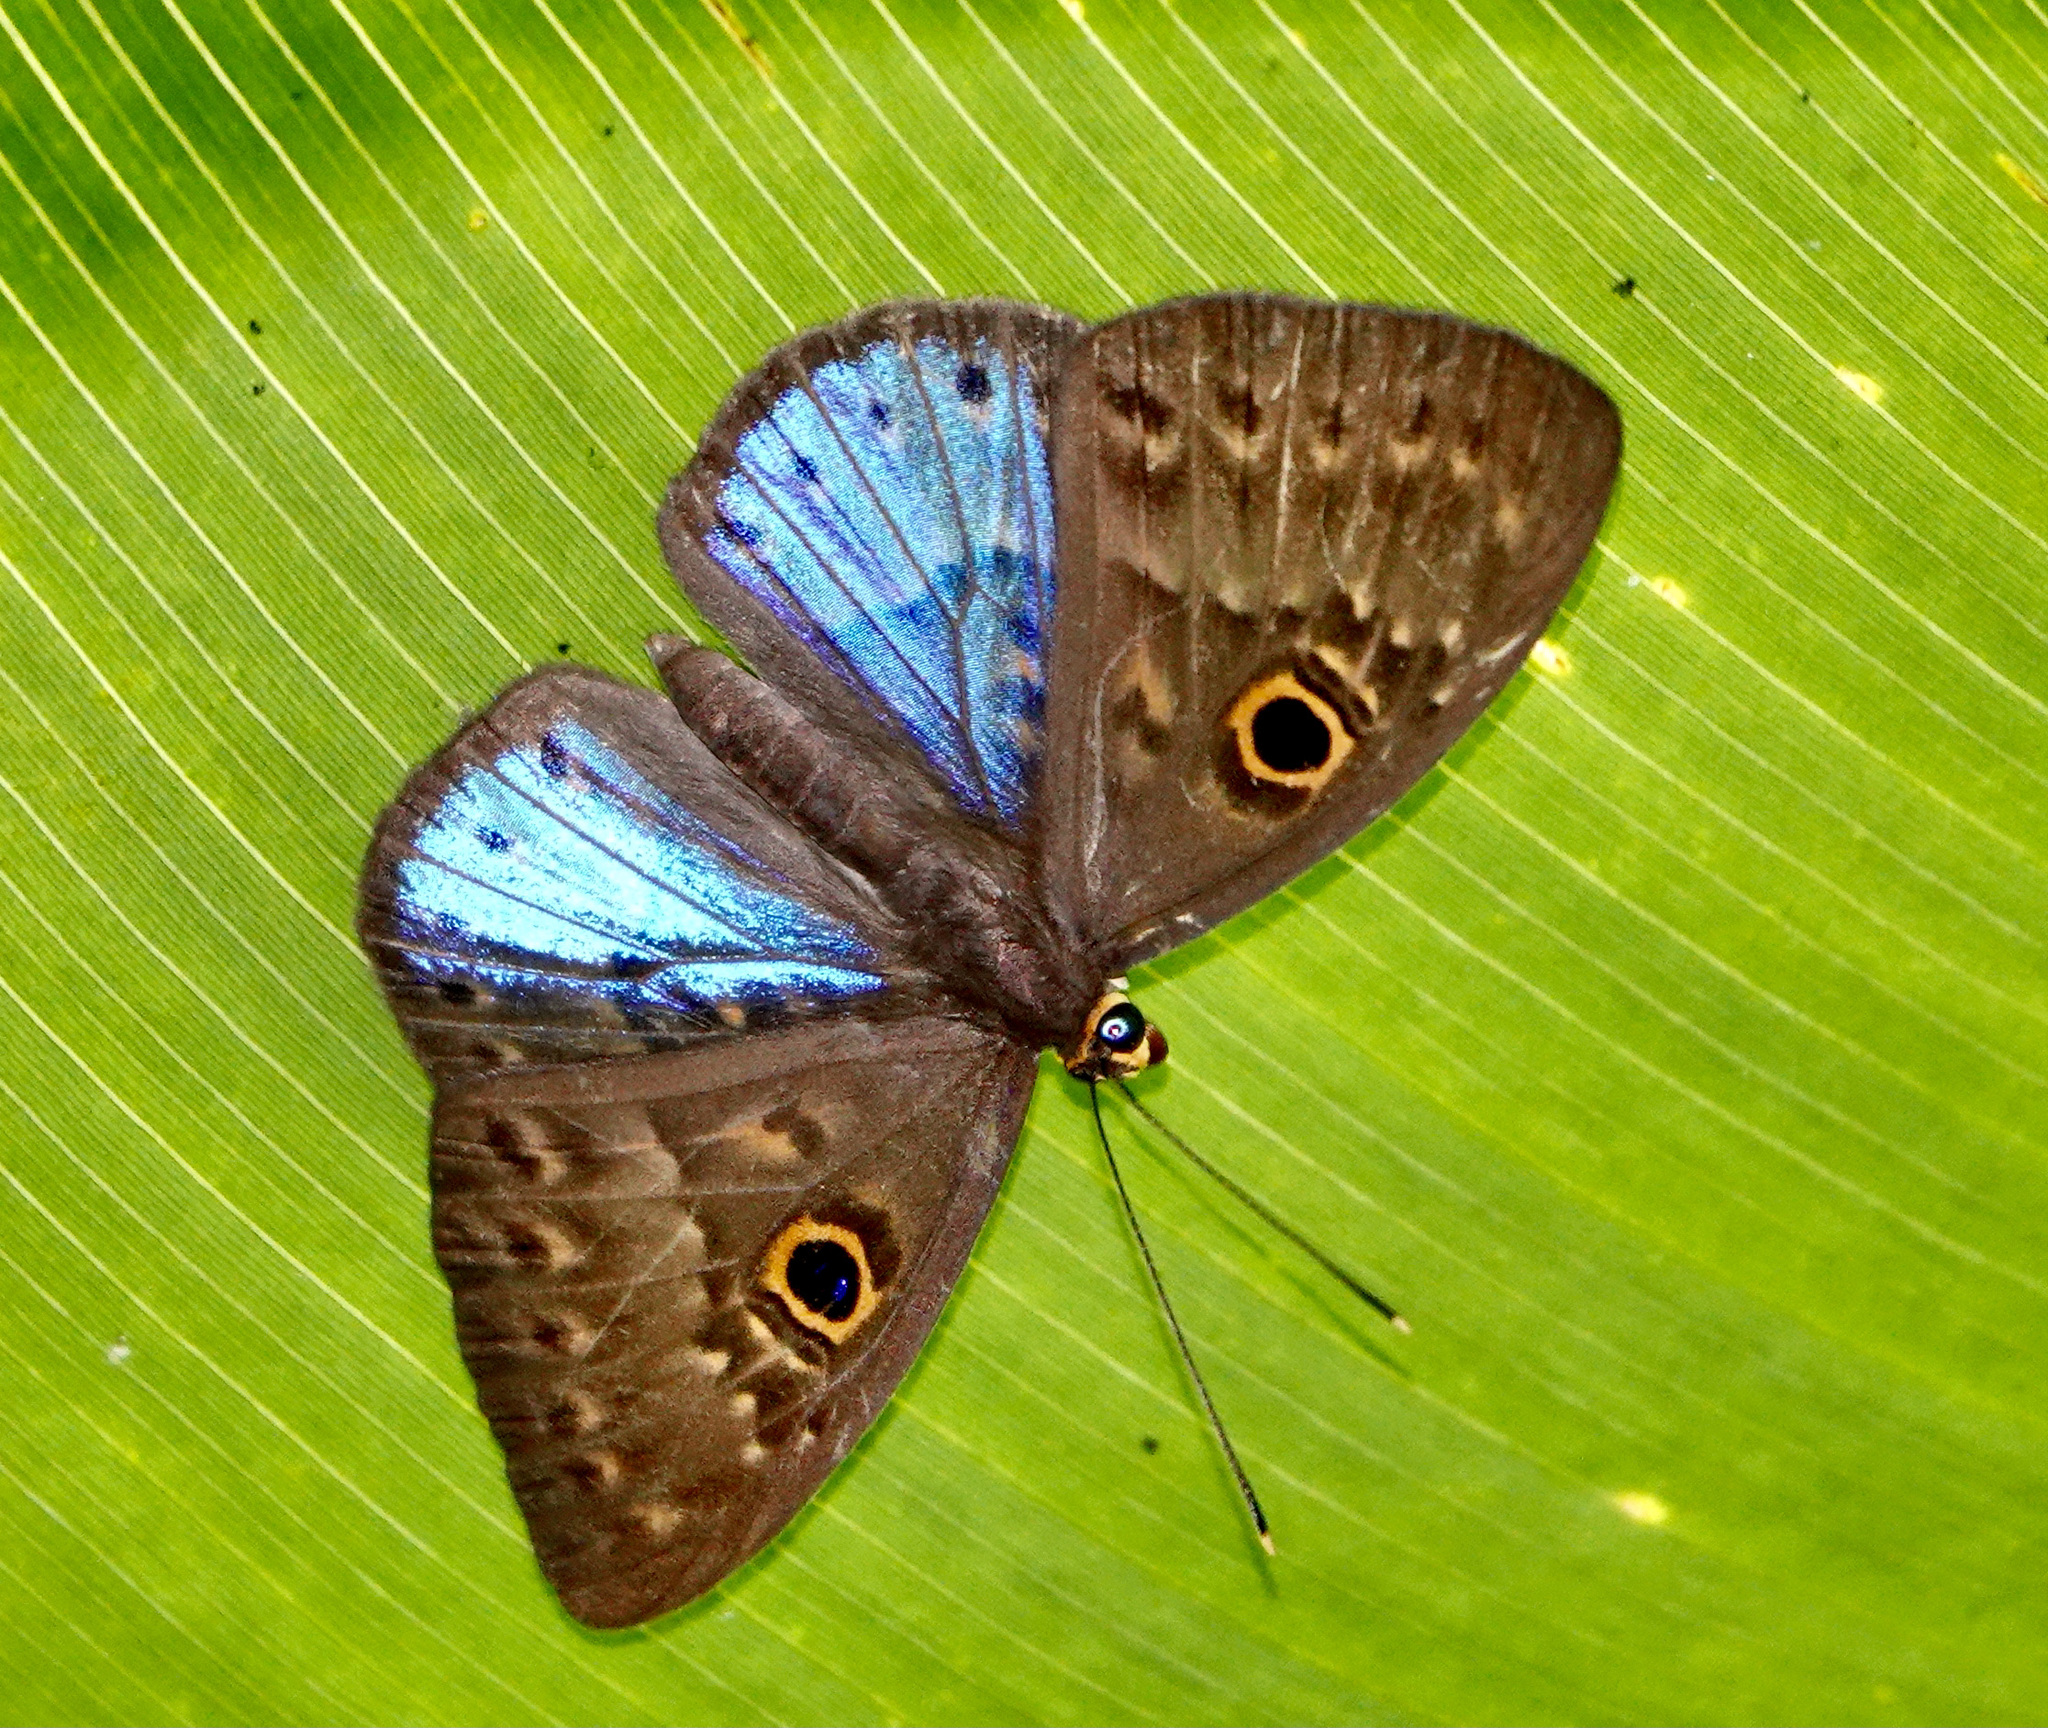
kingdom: Animalia
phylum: Cnidaria
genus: Eurybia
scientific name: Eurybia lycisca
